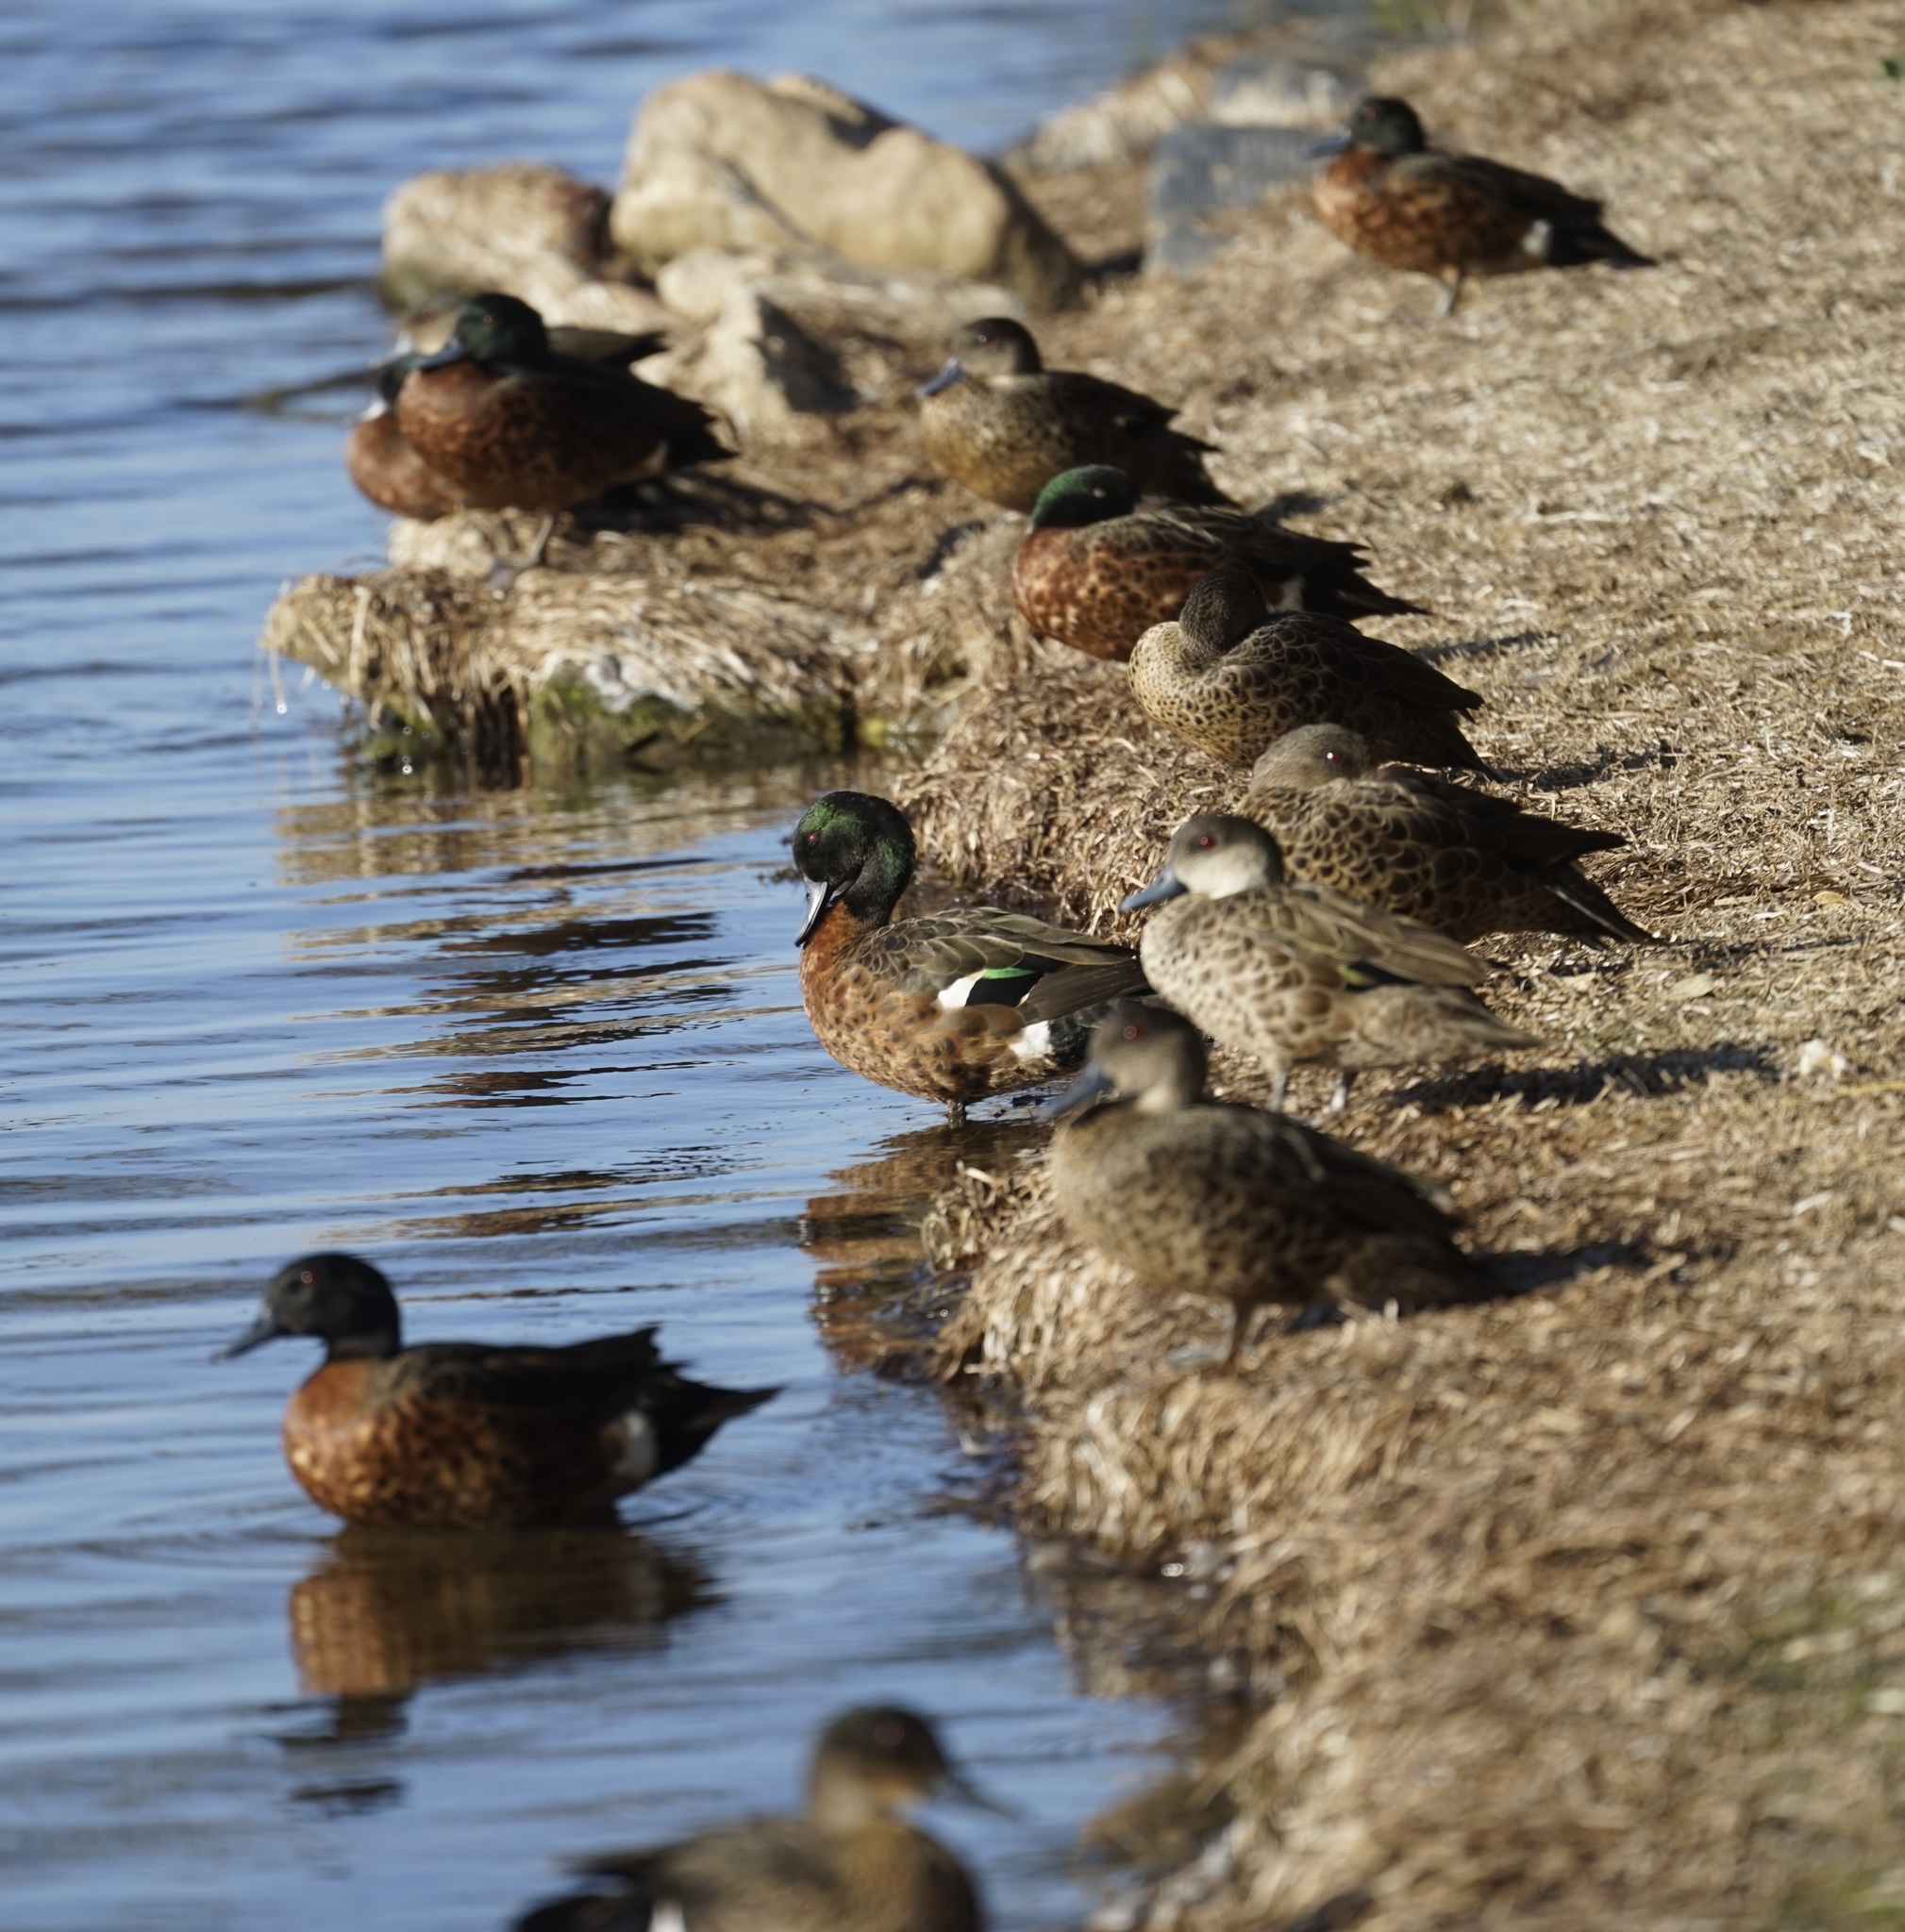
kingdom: Animalia
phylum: Chordata
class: Aves
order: Anseriformes
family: Anatidae
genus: Anas
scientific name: Anas castanea
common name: Chestnut teal
